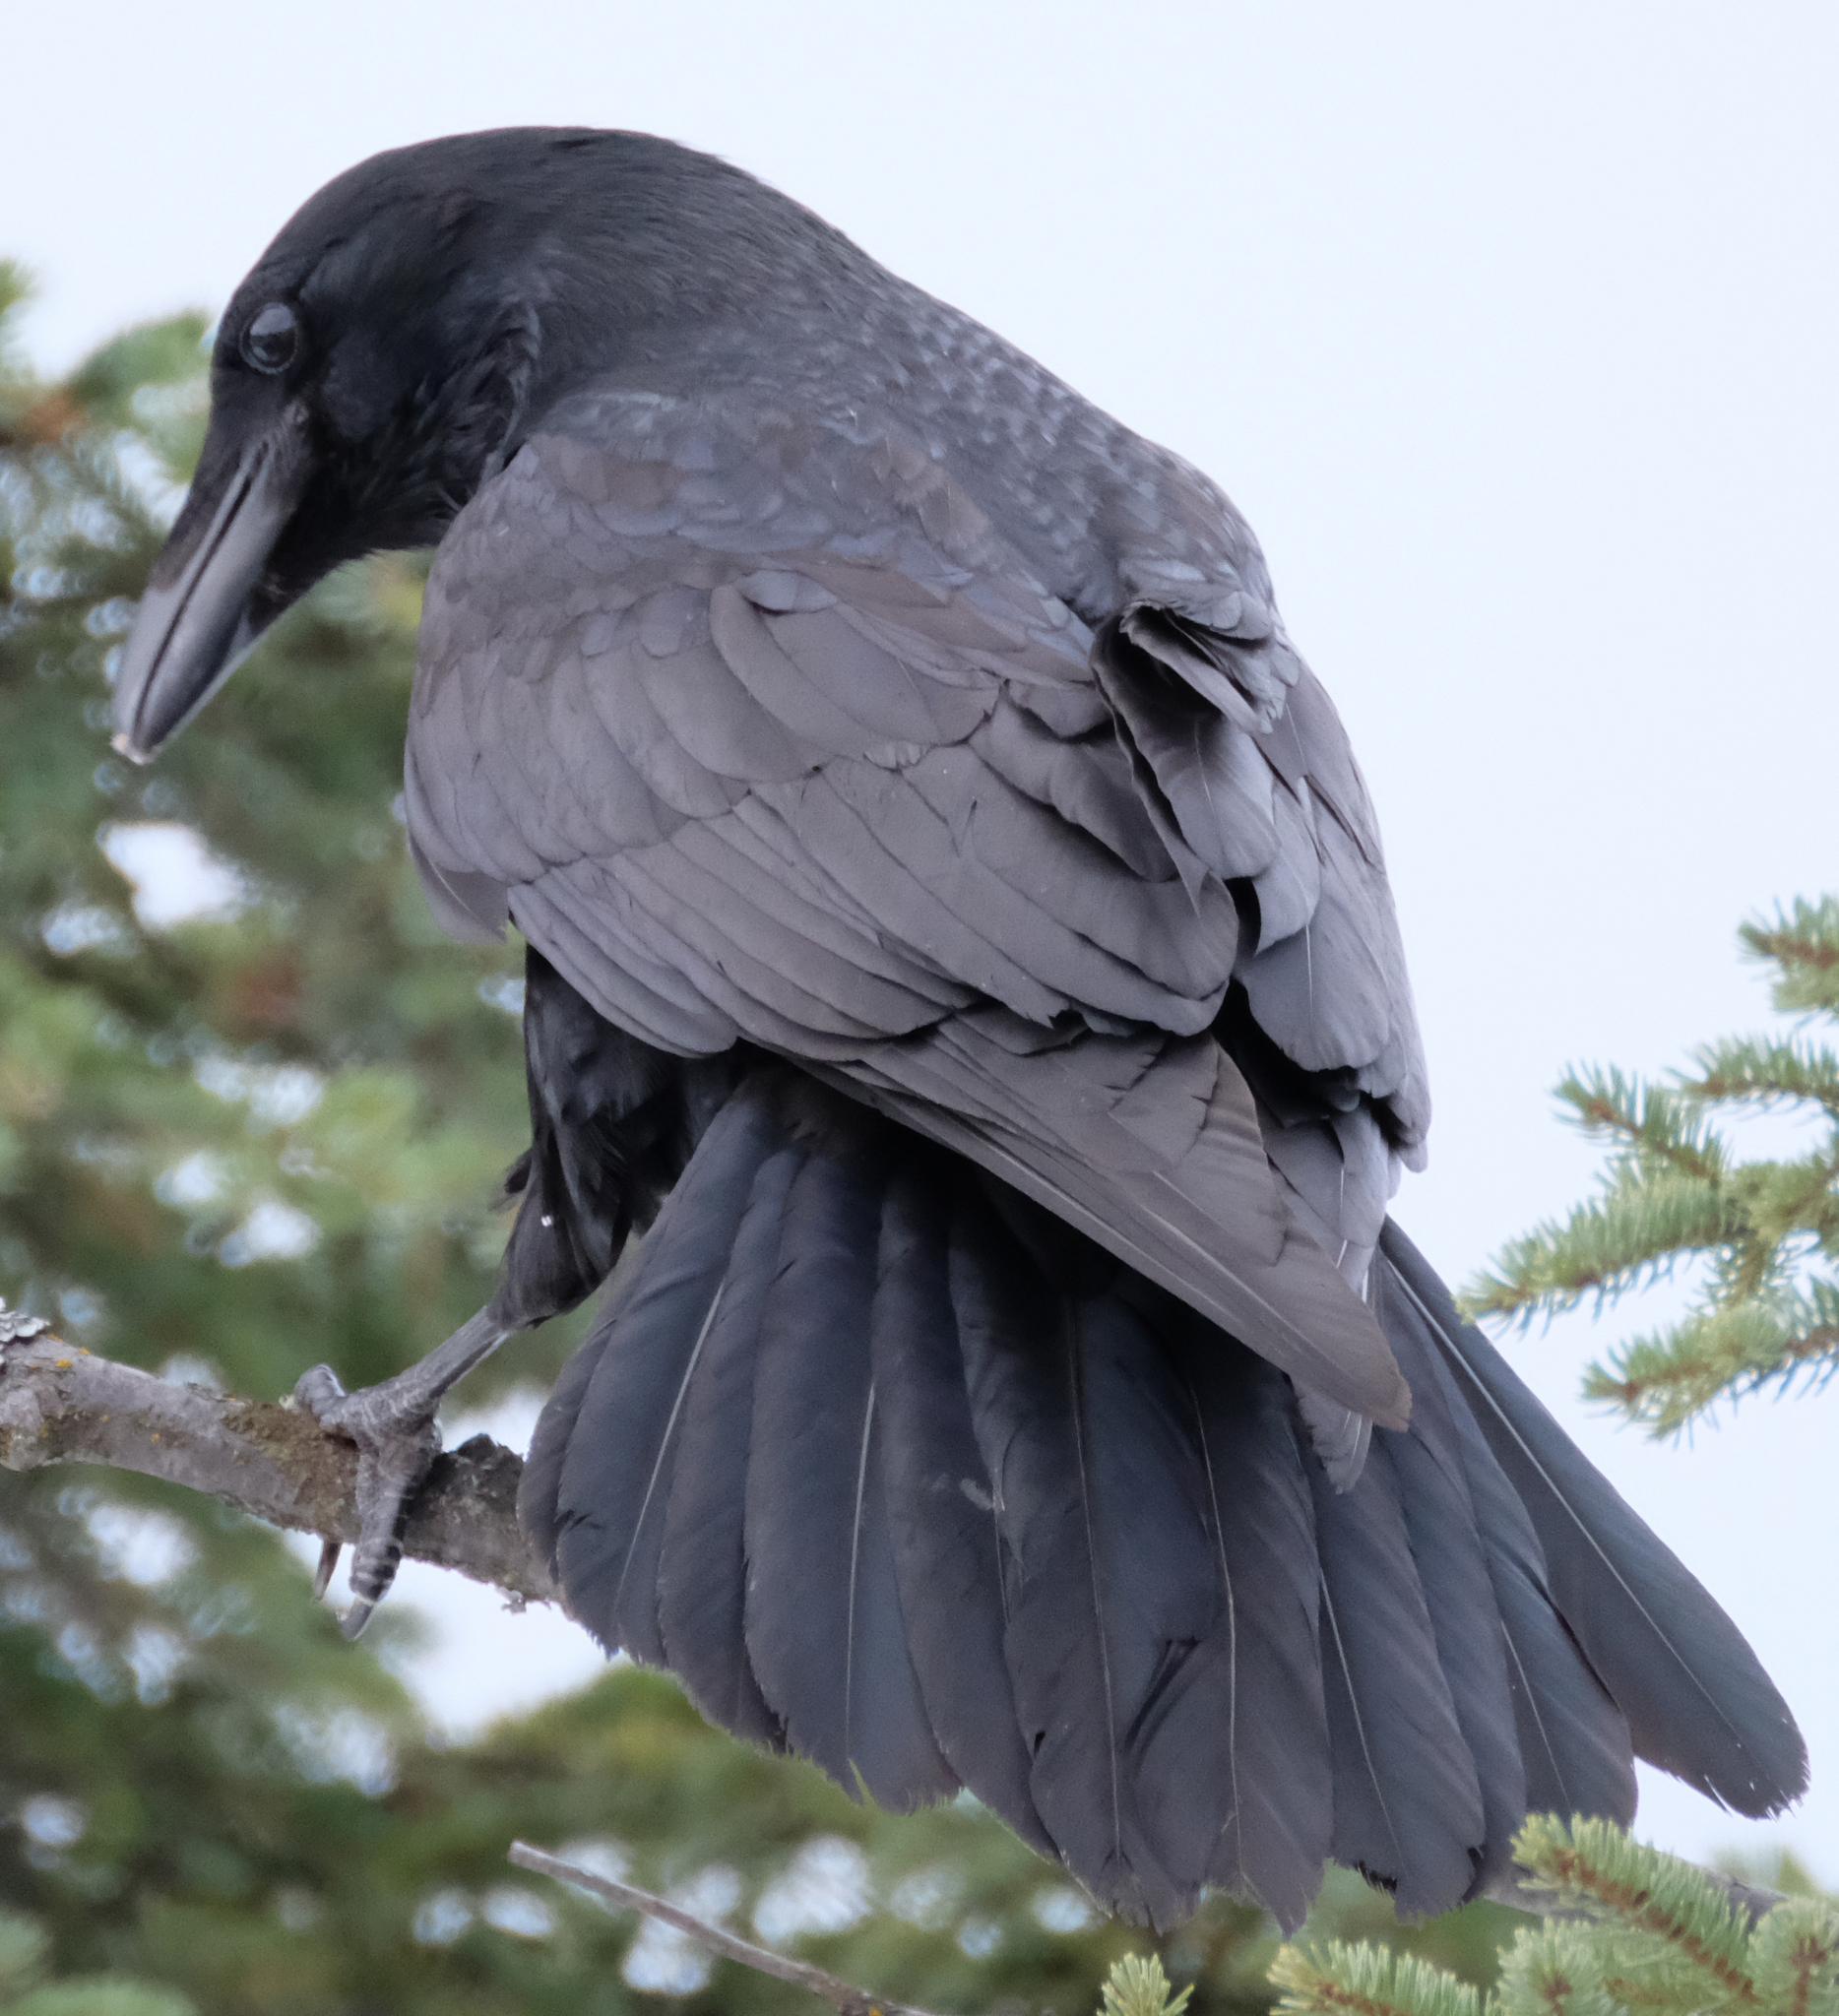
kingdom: Animalia
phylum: Chordata
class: Aves
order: Passeriformes
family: Corvidae
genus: Corvus
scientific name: Corvus corax
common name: Common raven
